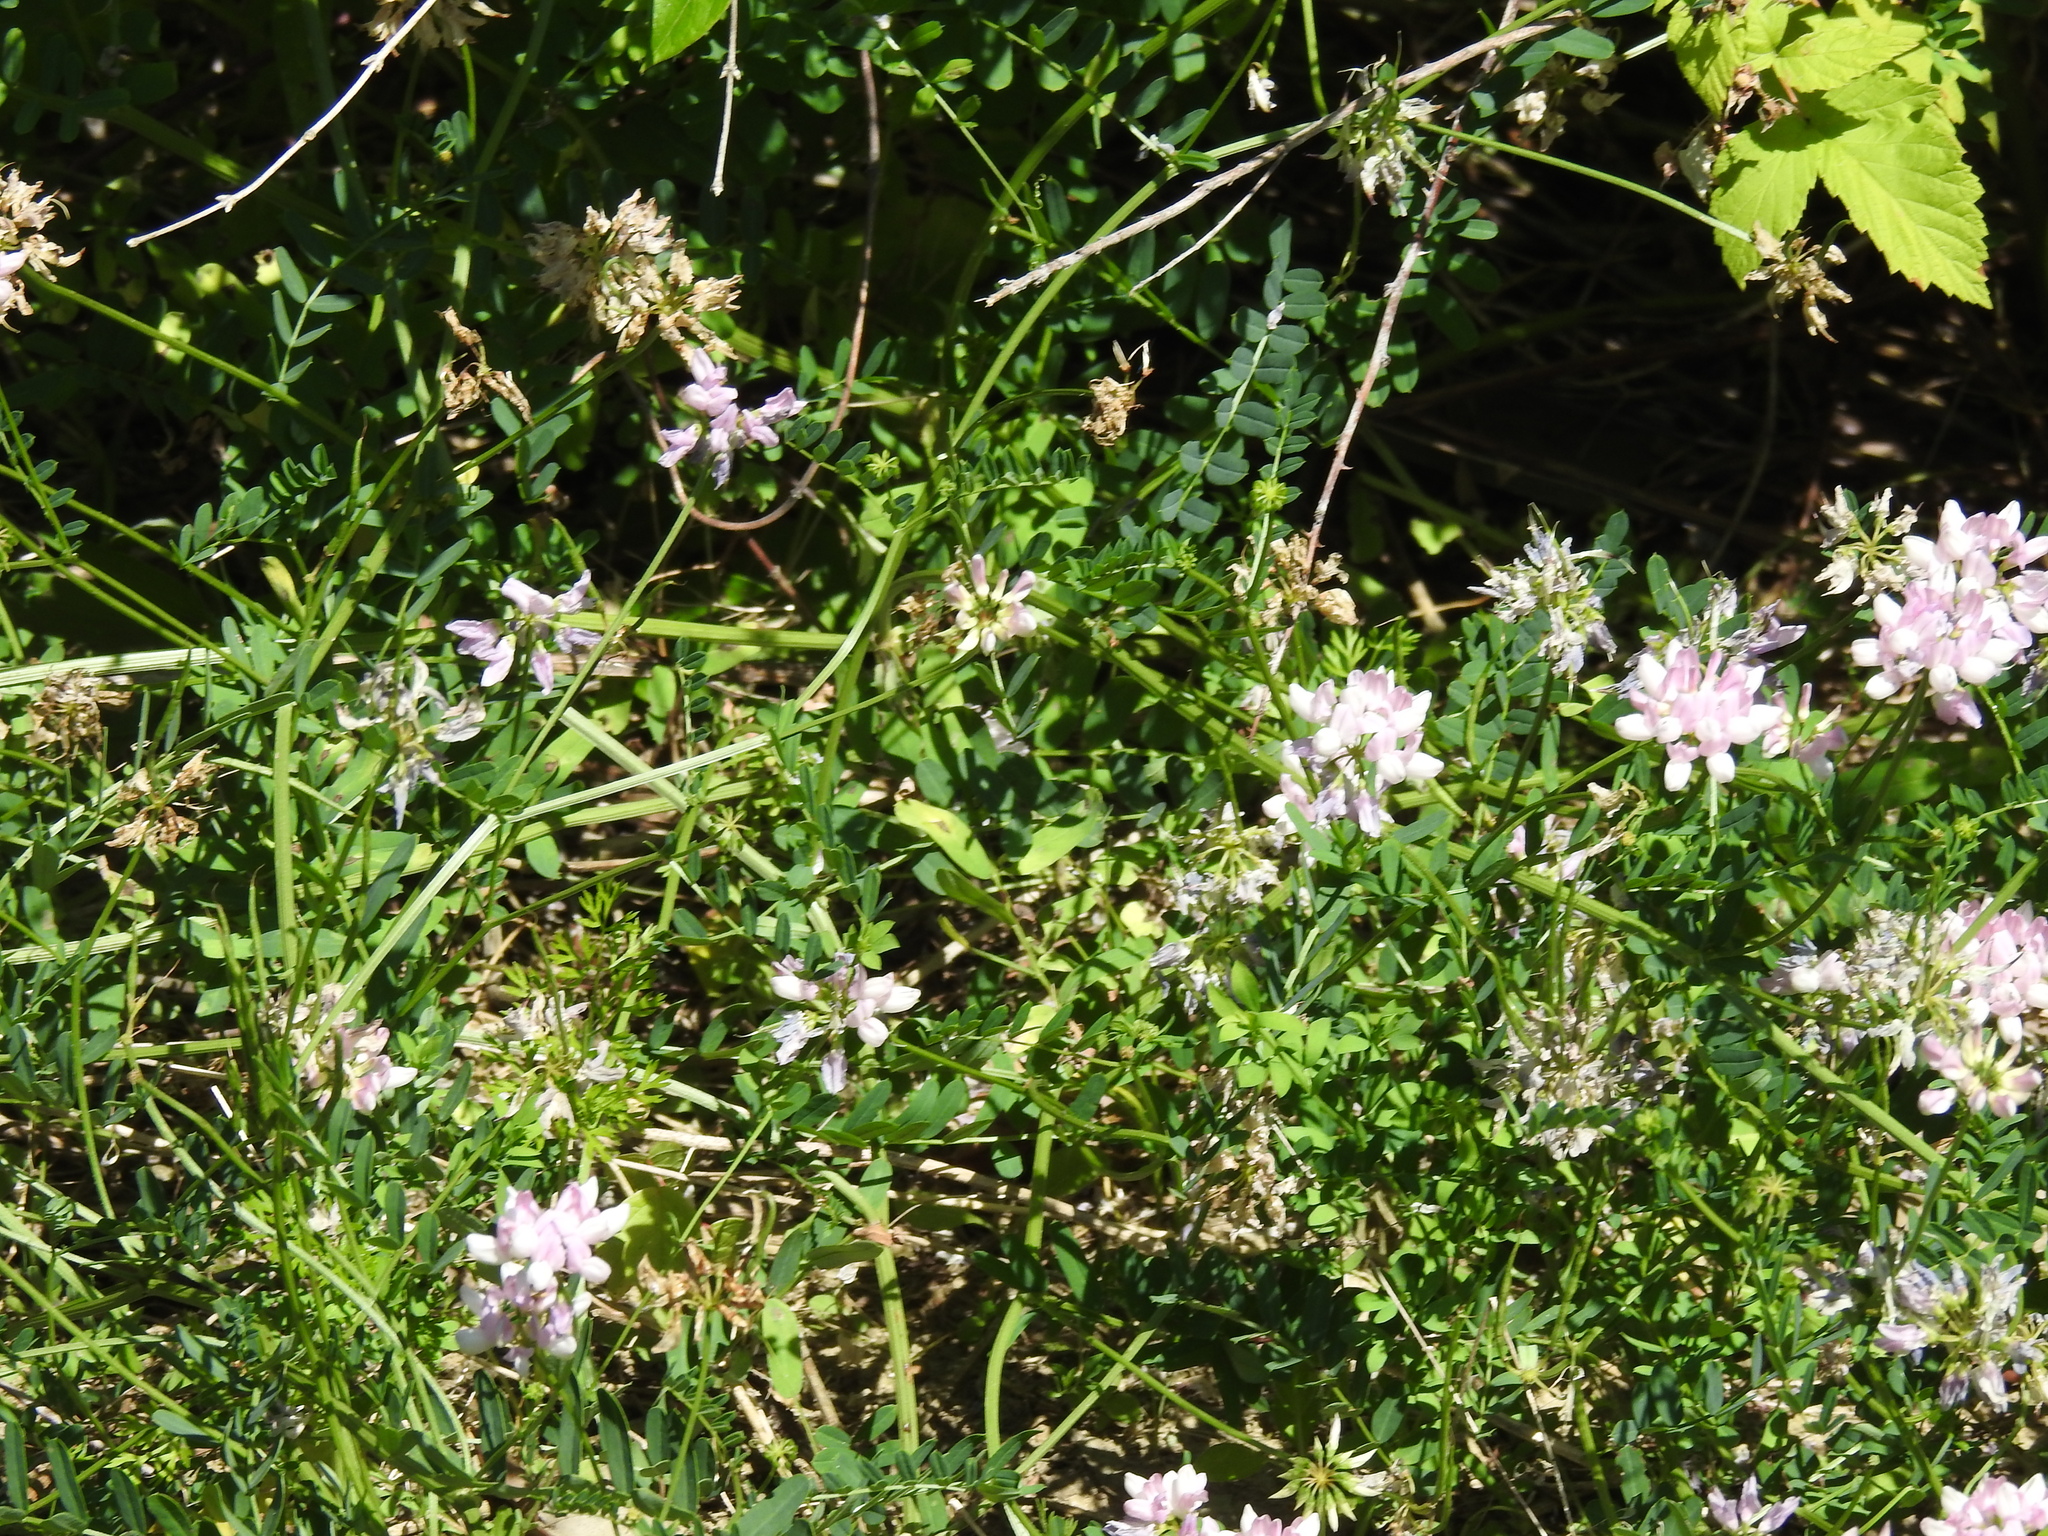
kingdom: Plantae
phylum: Tracheophyta
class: Magnoliopsida
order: Fabales
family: Fabaceae
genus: Coronilla
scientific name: Coronilla varia
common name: Crownvetch
